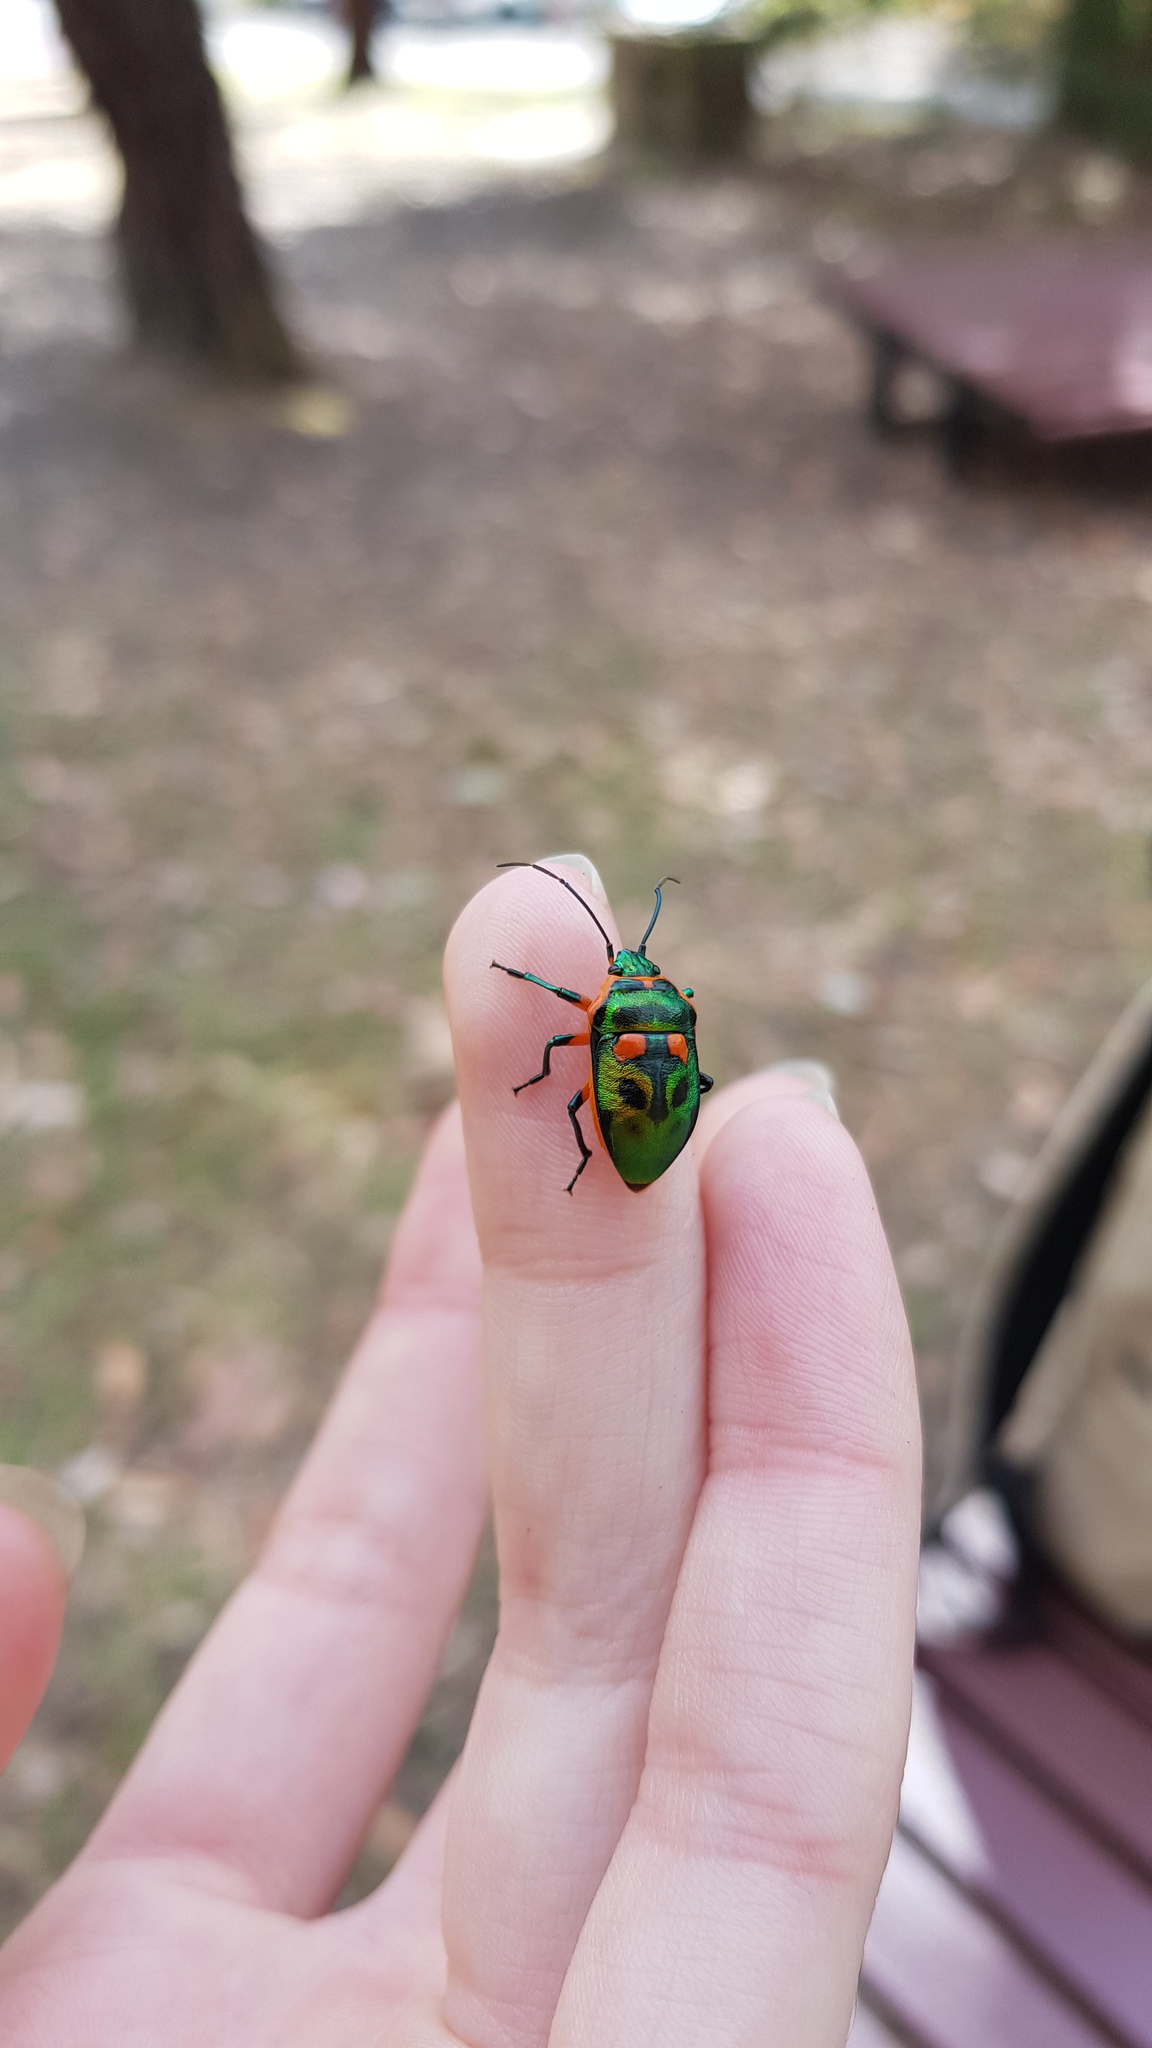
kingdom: Animalia
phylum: Arthropoda
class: Insecta
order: Hemiptera
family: Scutelleridae
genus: Scutiphora
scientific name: Scutiphora pedicellata
